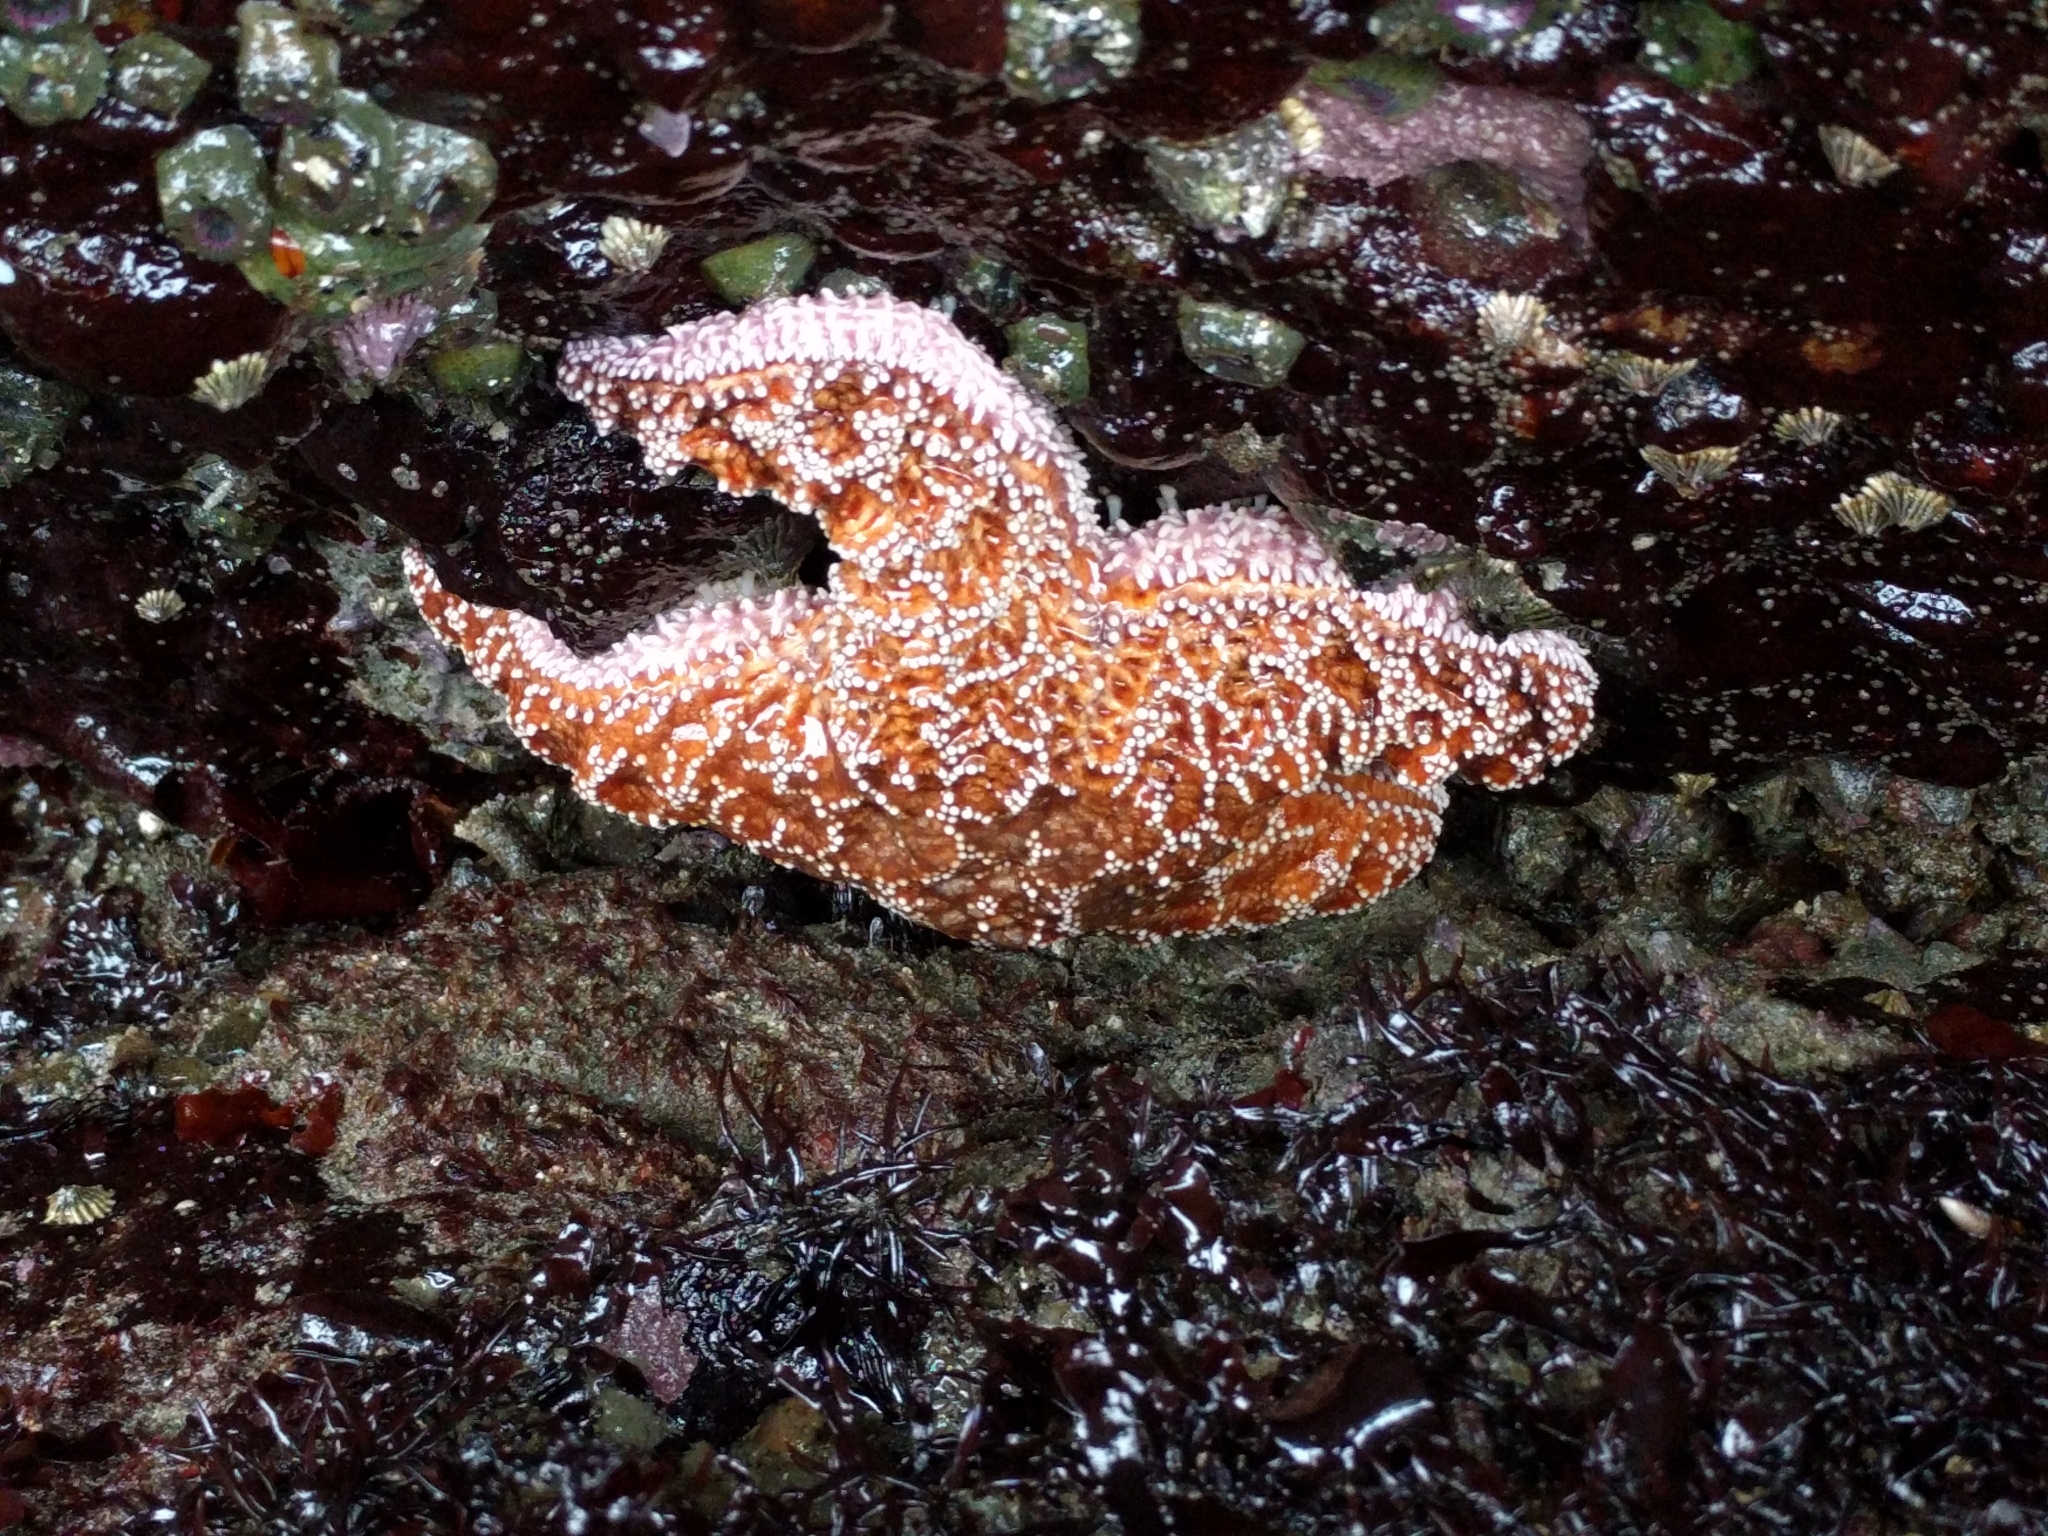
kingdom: Animalia
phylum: Echinodermata
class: Asteroidea
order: Forcipulatida
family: Asteriidae
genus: Pisaster
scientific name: Pisaster ochraceus
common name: Ochre stars
